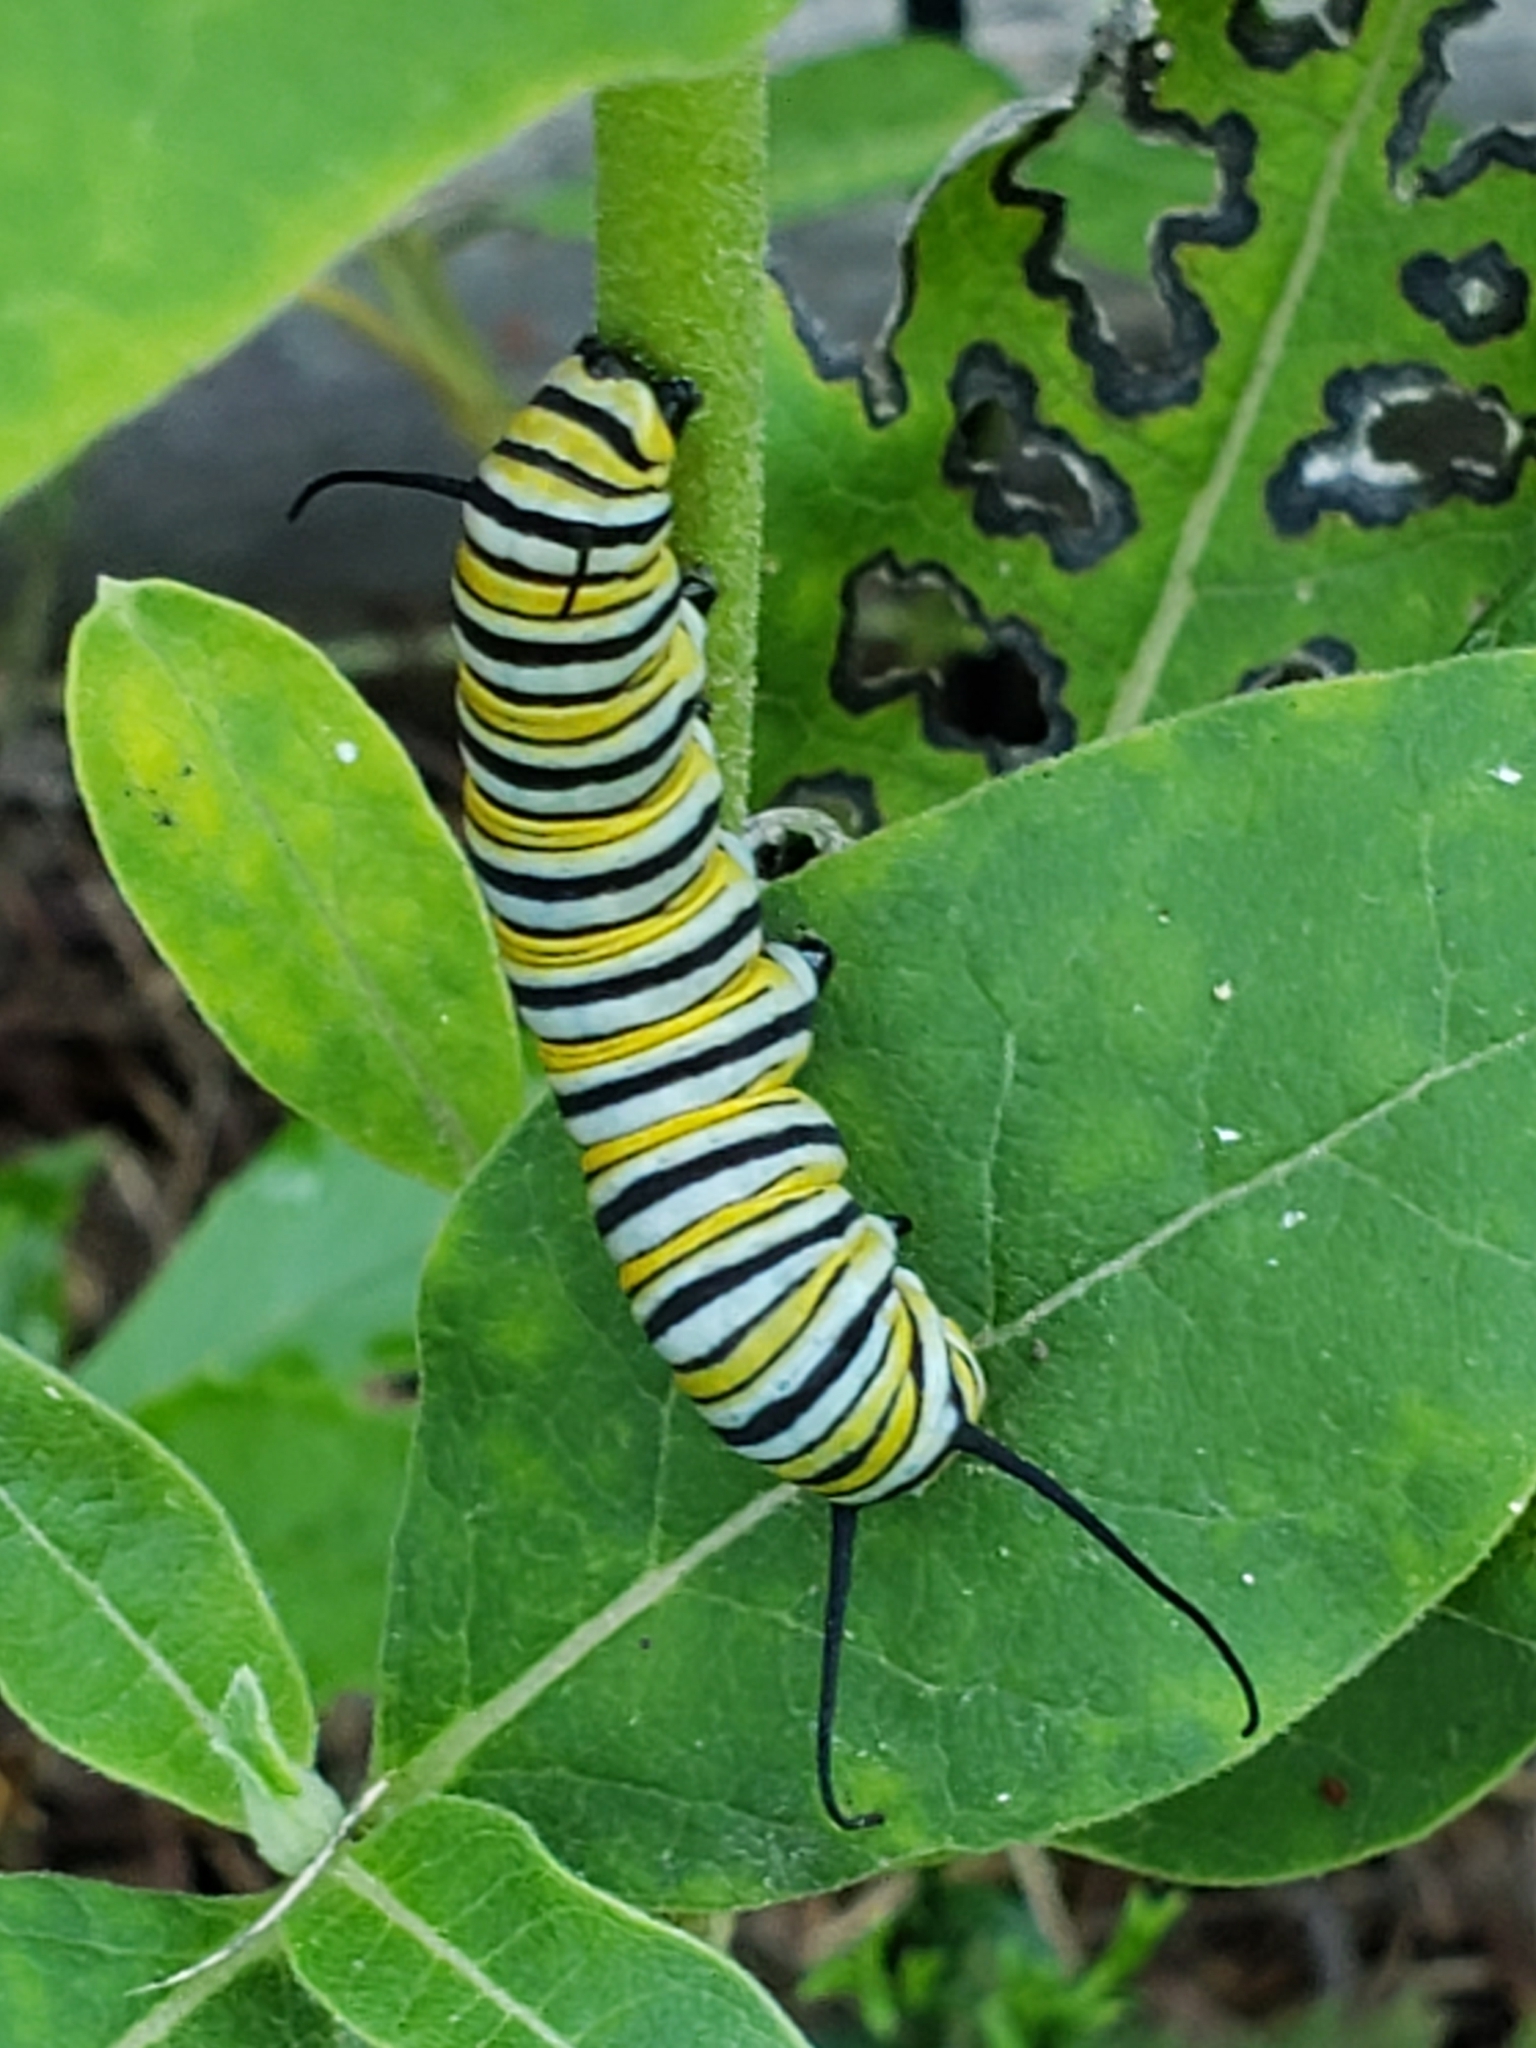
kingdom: Animalia
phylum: Arthropoda
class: Insecta
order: Lepidoptera
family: Nymphalidae
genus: Danaus
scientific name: Danaus plexippus
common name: Monarch
